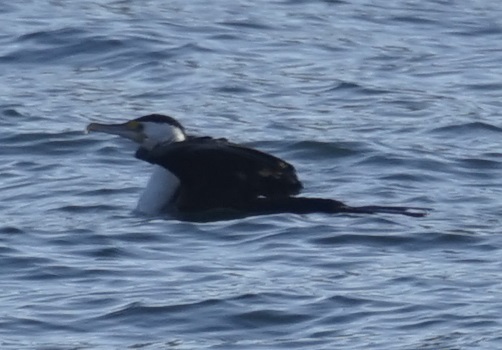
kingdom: Animalia
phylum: Chordata
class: Aves
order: Suliformes
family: Phalacrocoracidae
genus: Phalacrocorax
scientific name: Phalacrocorax varius
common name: Pied cormorant
